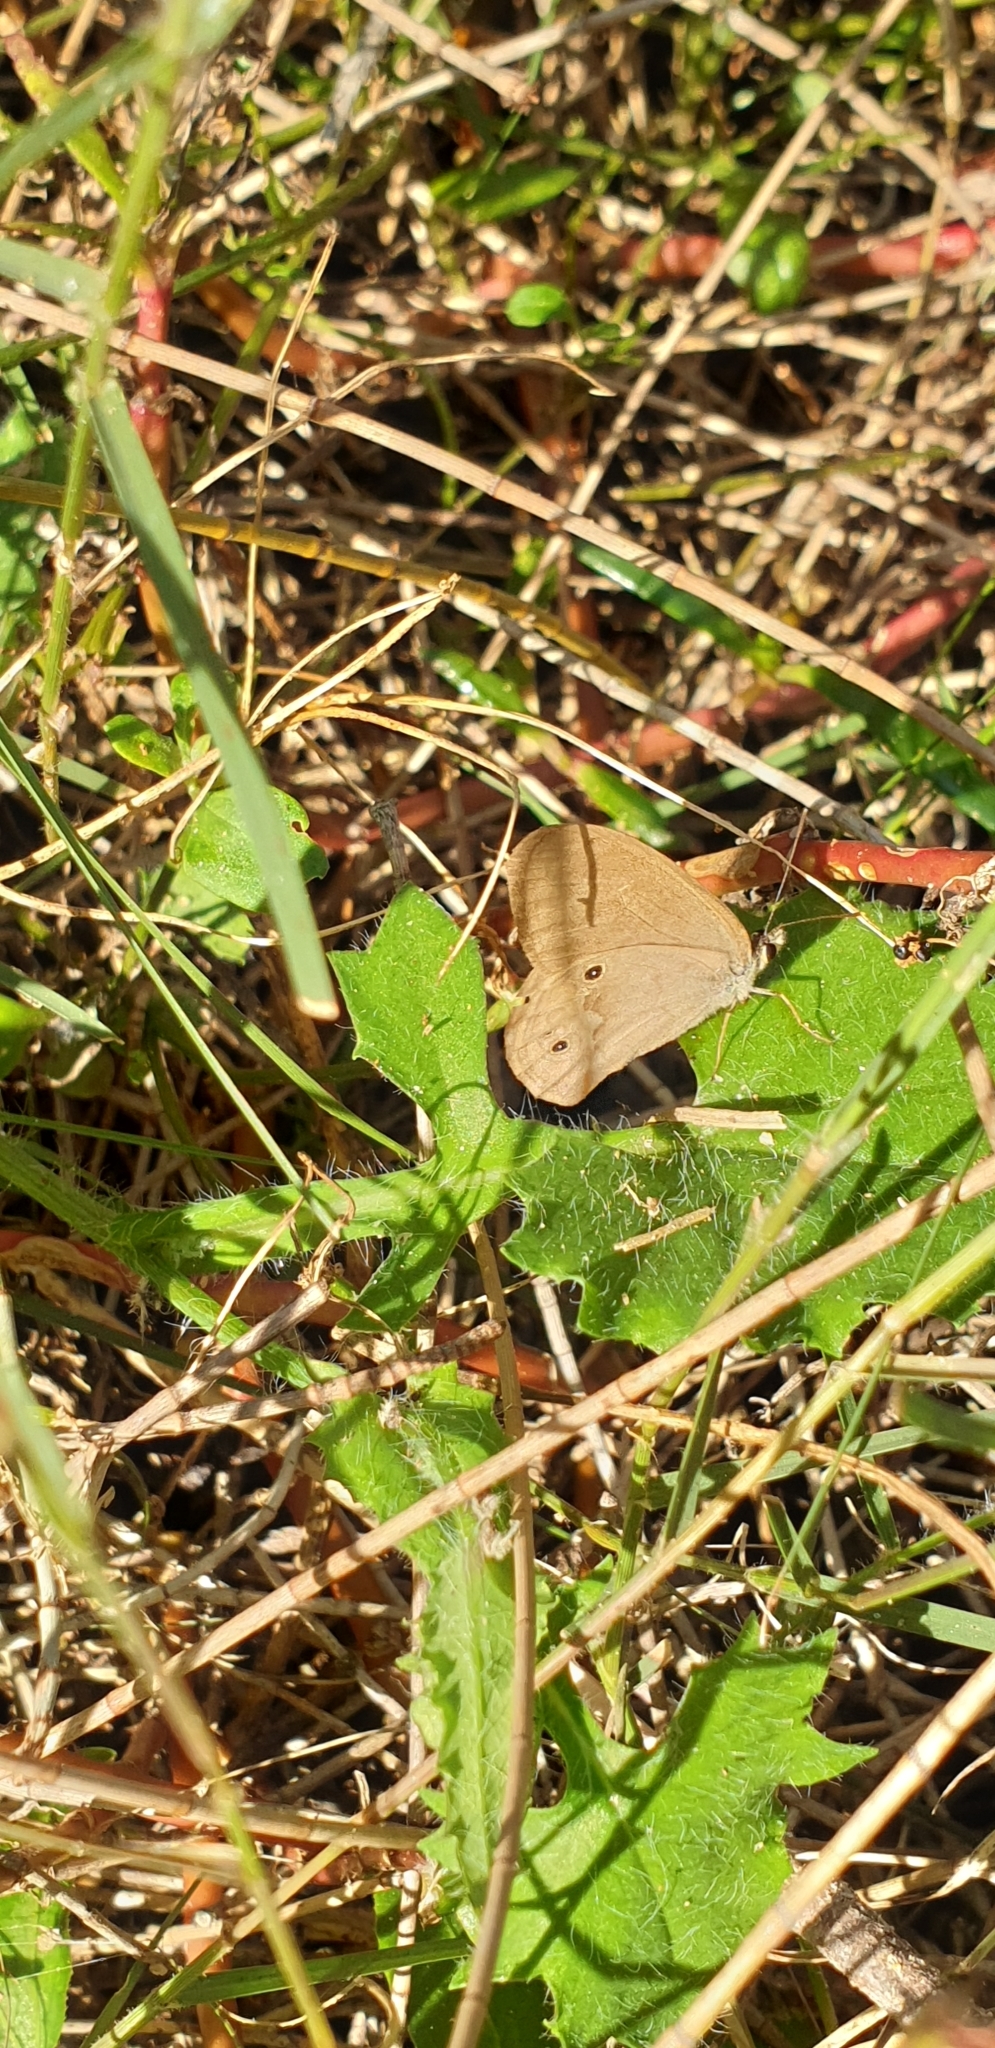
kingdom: Animalia
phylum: Arthropoda
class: Insecta
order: Lepidoptera
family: Nymphalidae
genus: Hypocysta
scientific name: Hypocysta metirius
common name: Brown ringlet
